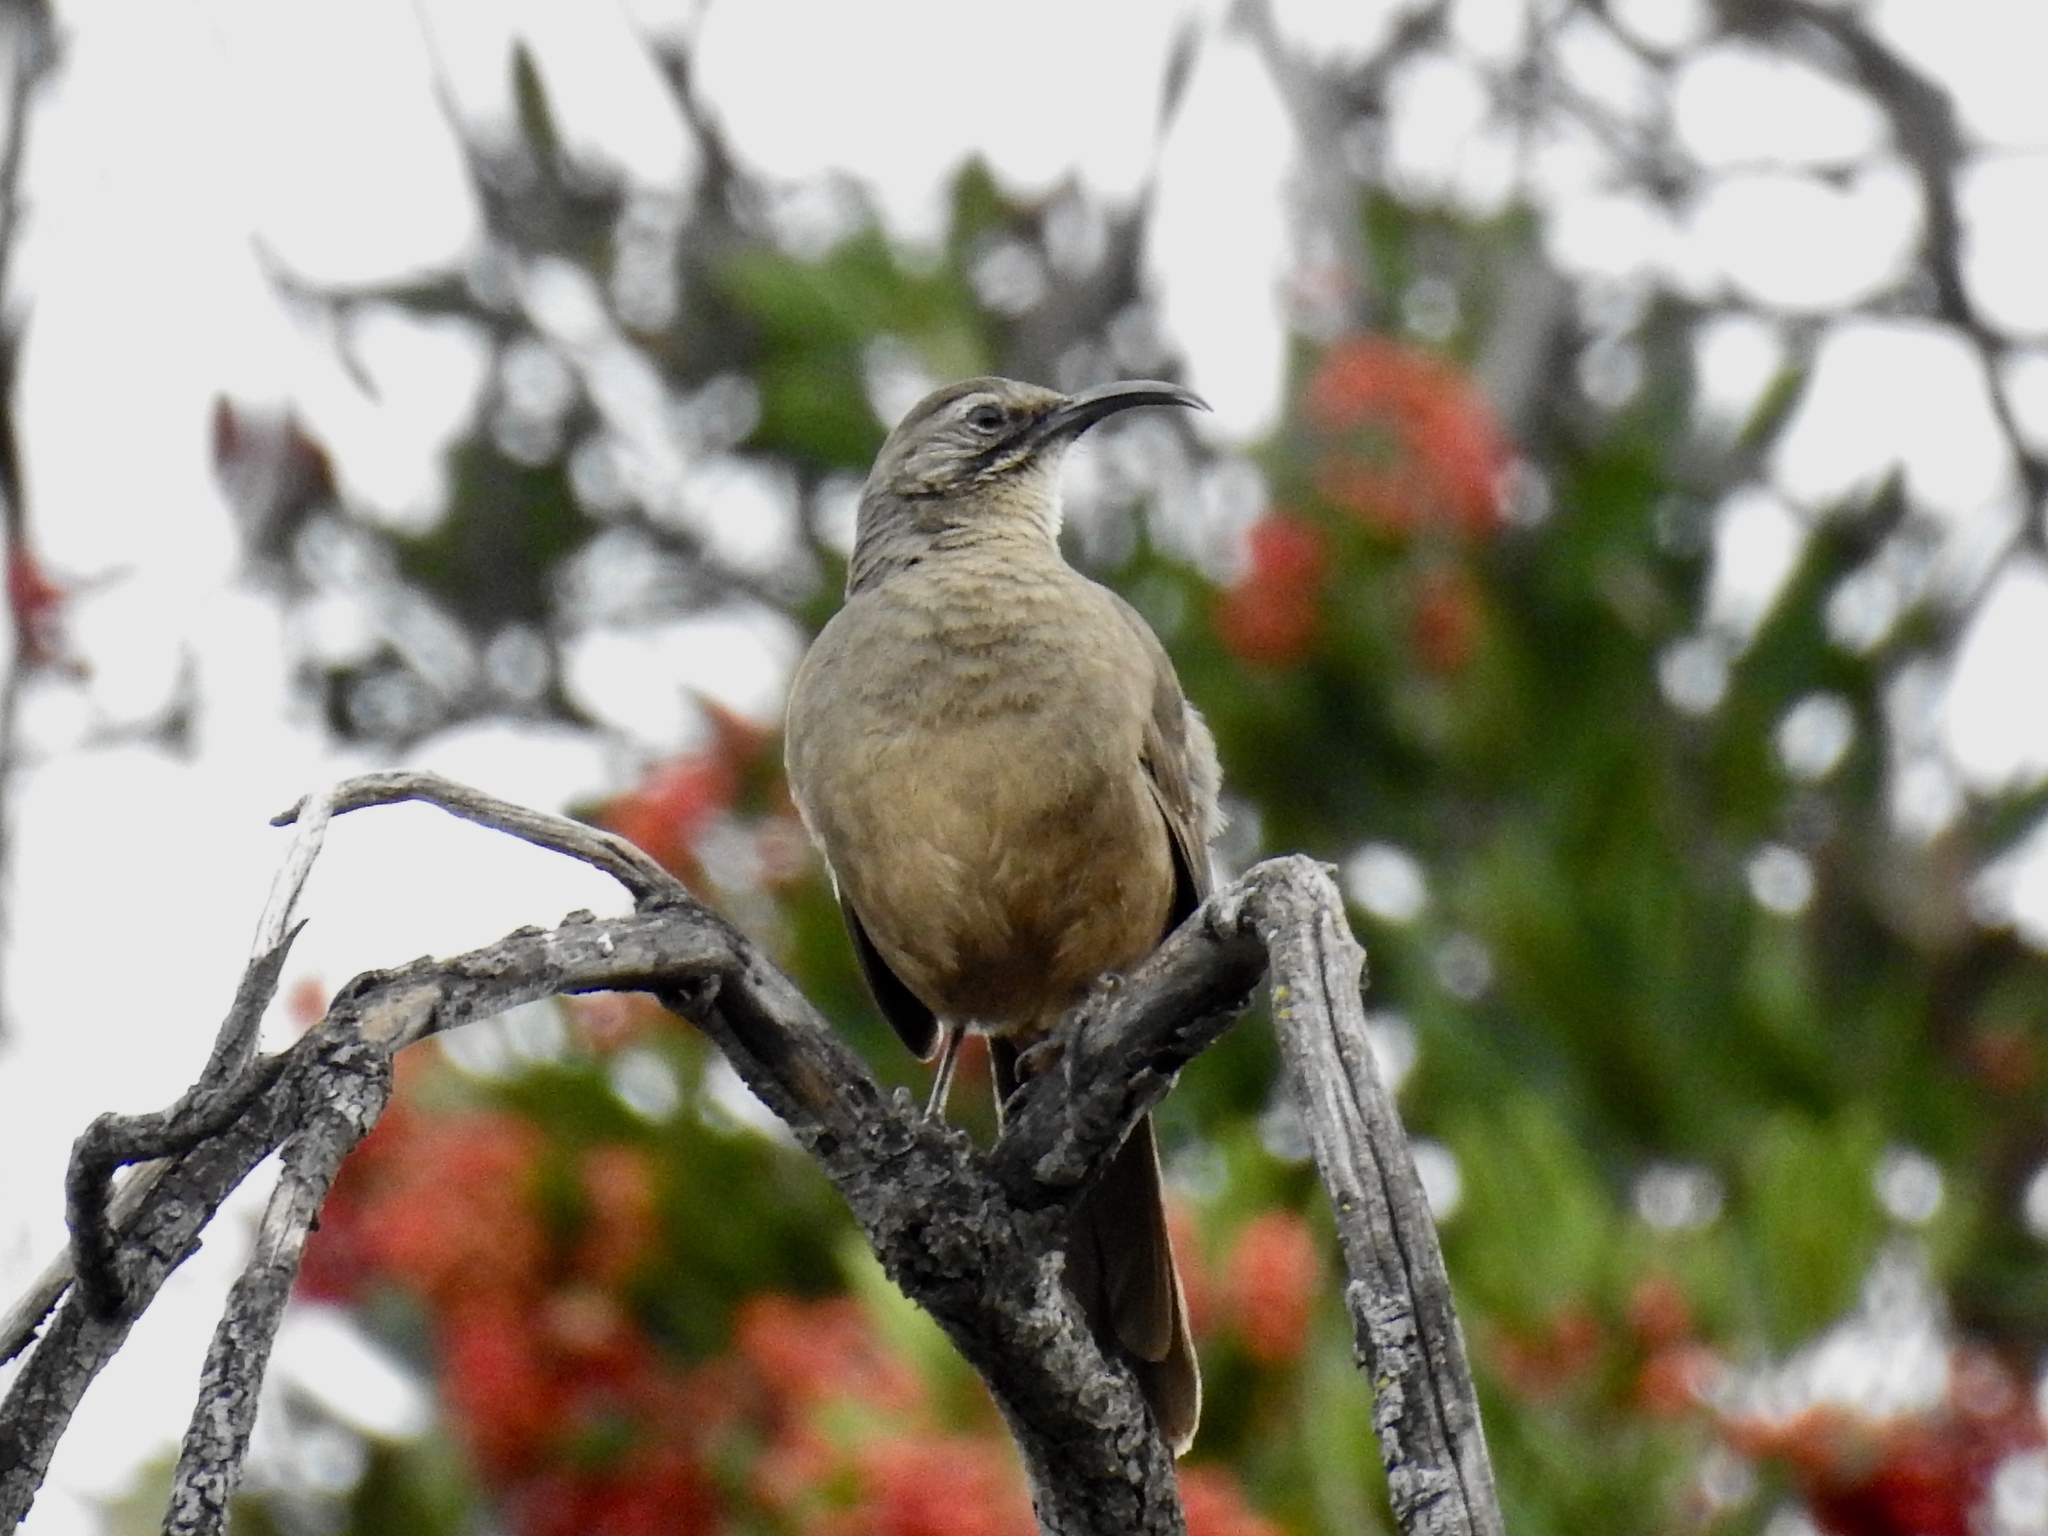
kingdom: Animalia
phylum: Chordata
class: Aves
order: Passeriformes
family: Mimidae
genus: Toxostoma
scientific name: Toxostoma redivivum
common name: California thrasher
